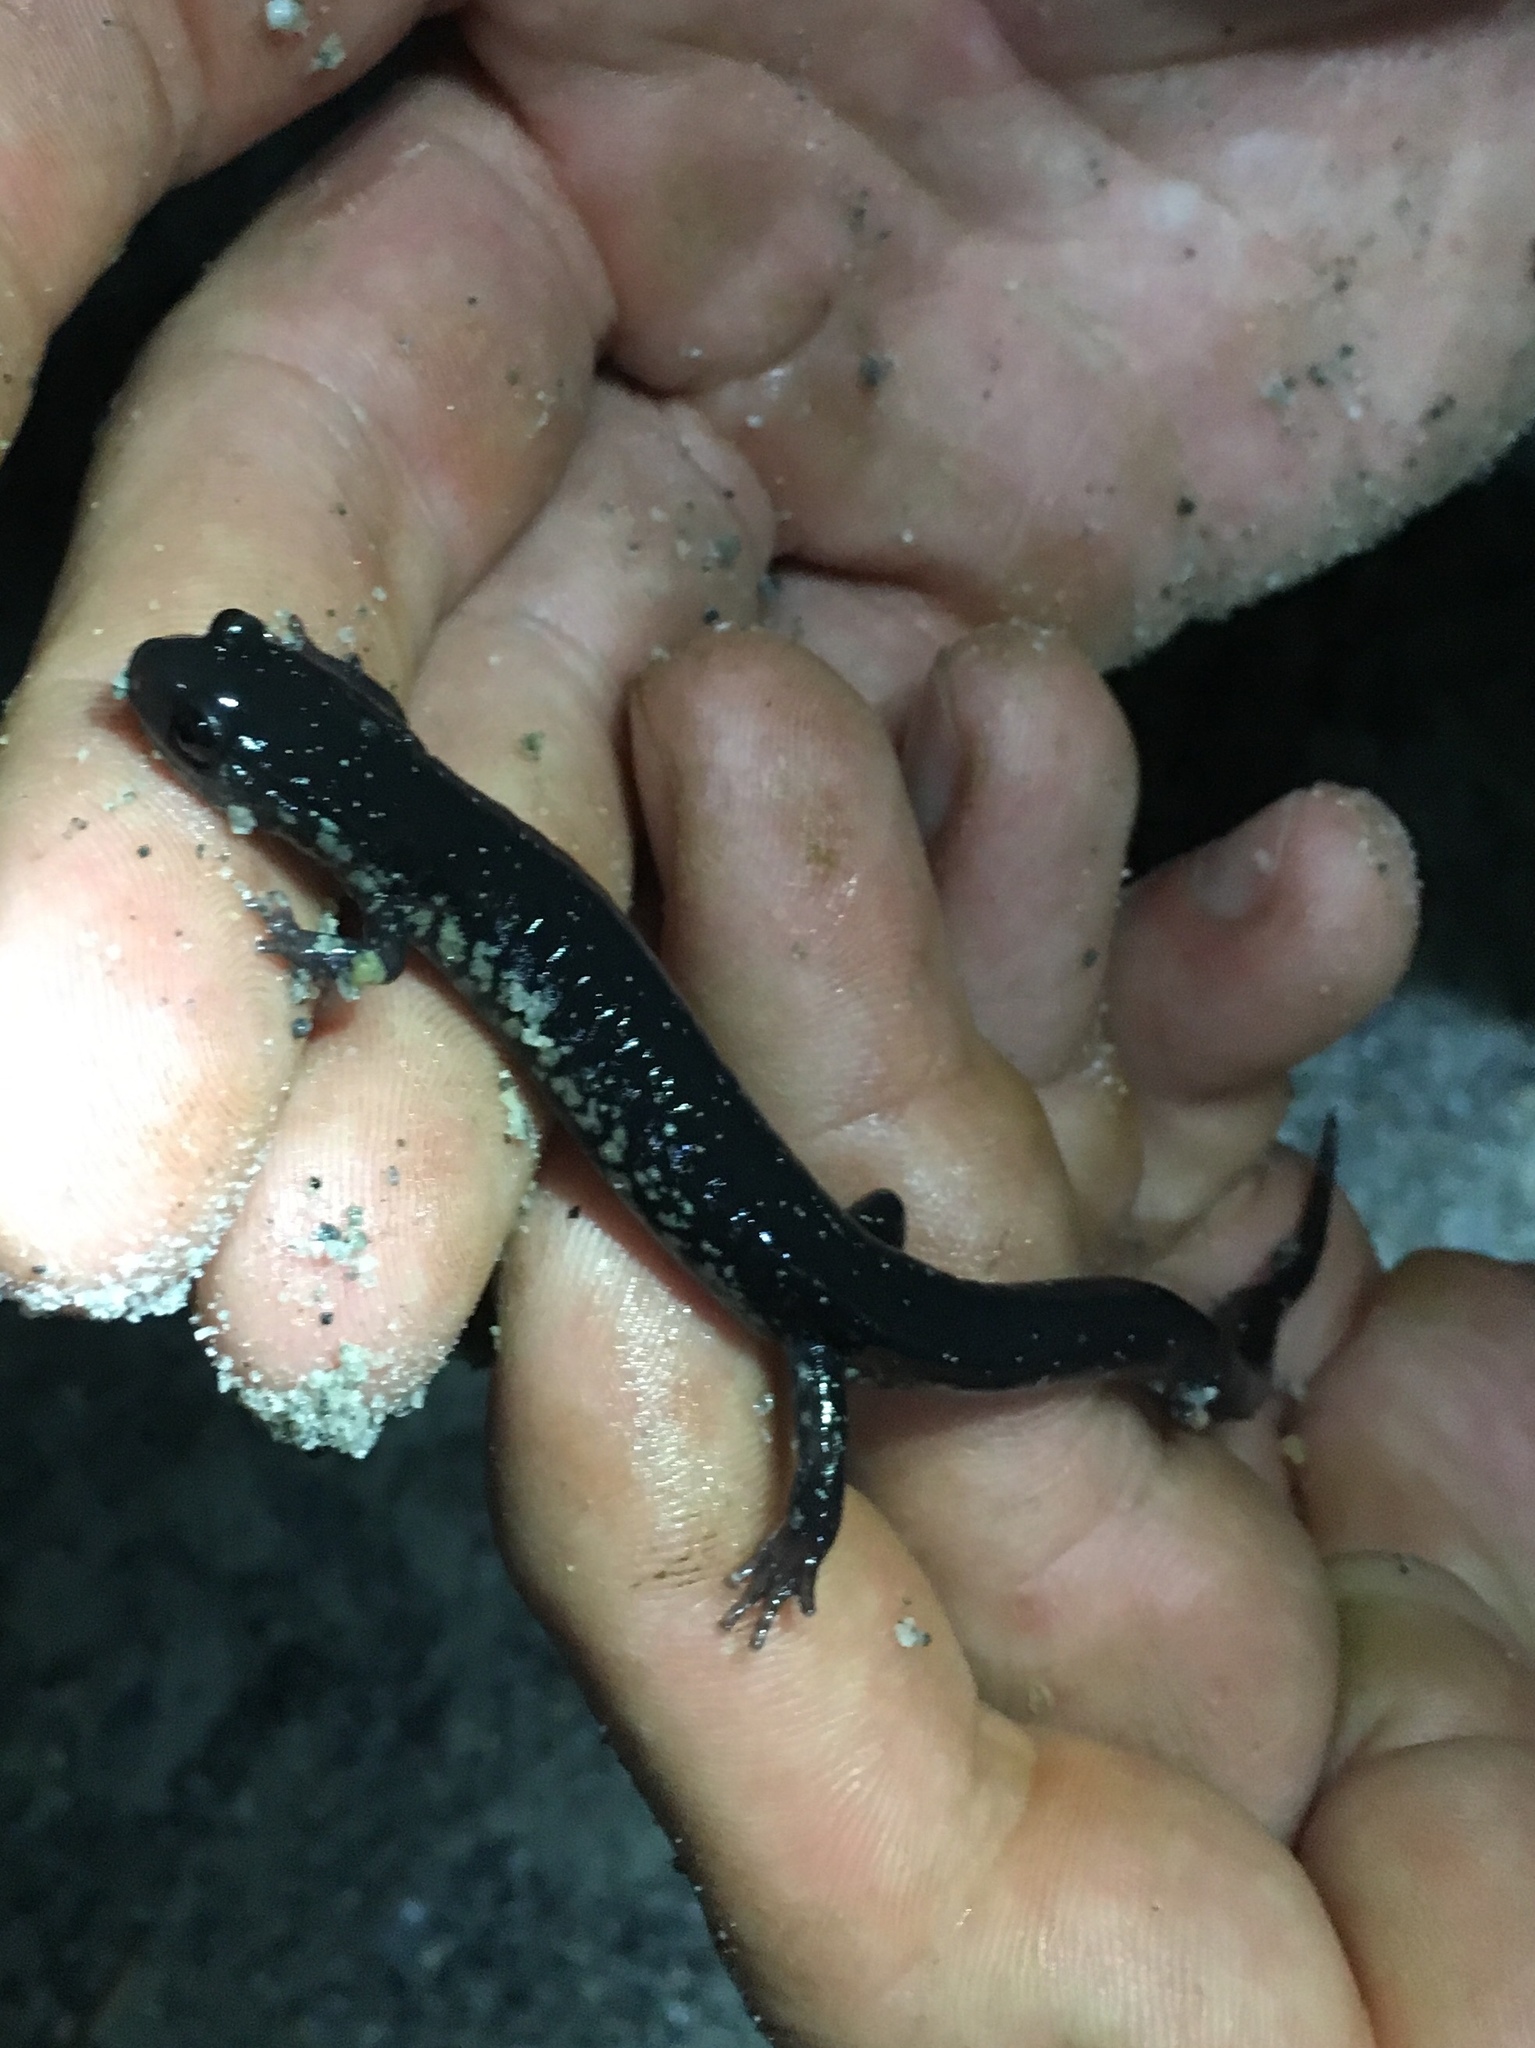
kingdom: Animalia
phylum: Chordata
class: Amphibia
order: Caudata
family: Plethodontidae
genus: Plethodon
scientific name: Plethodon chlorobryonis
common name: Atlantic coast slimy salamander
